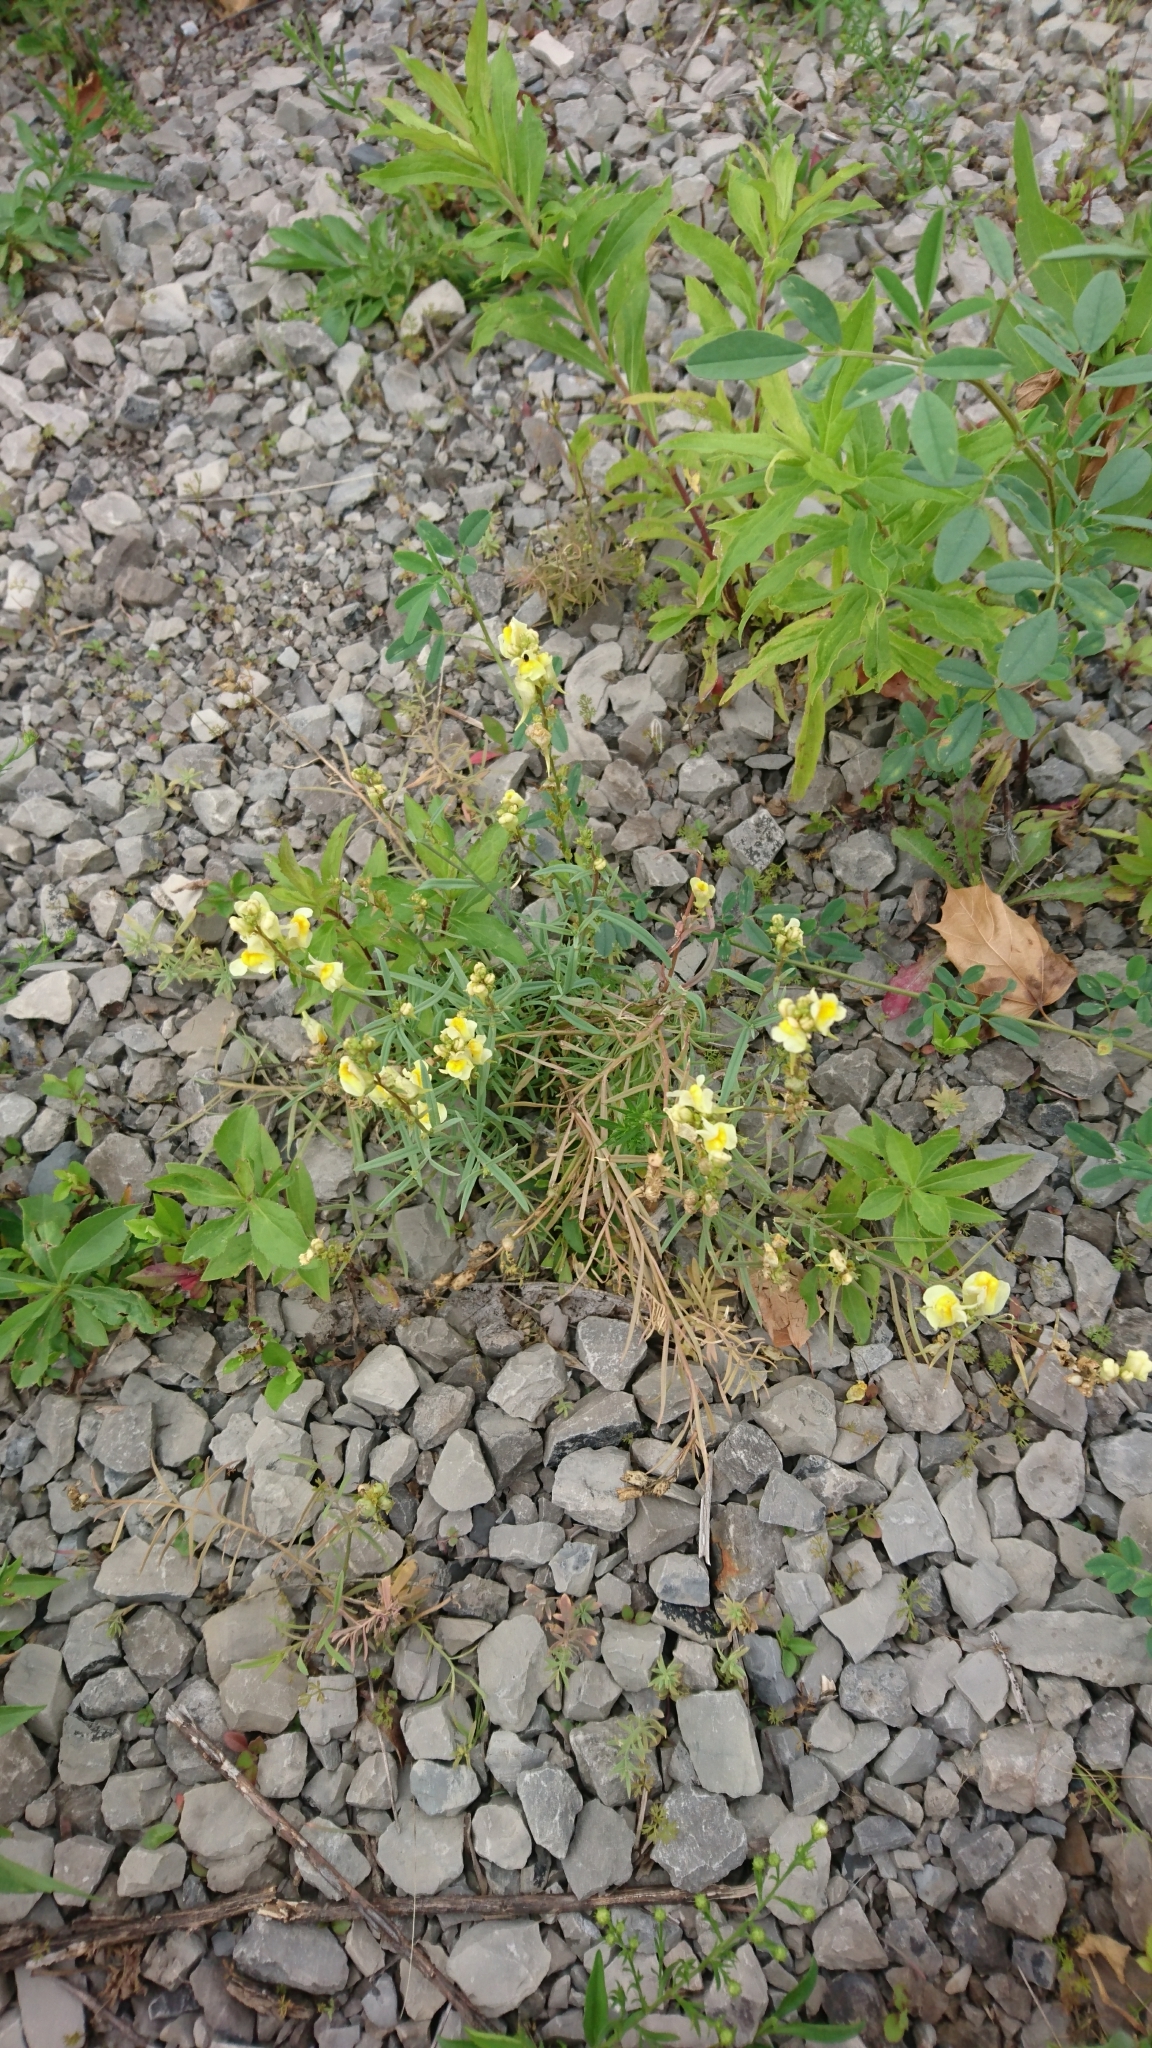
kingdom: Plantae
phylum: Tracheophyta
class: Magnoliopsida
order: Lamiales
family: Plantaginaceae
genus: Linaria
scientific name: Linaria vulgaris
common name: Butter and eggs
